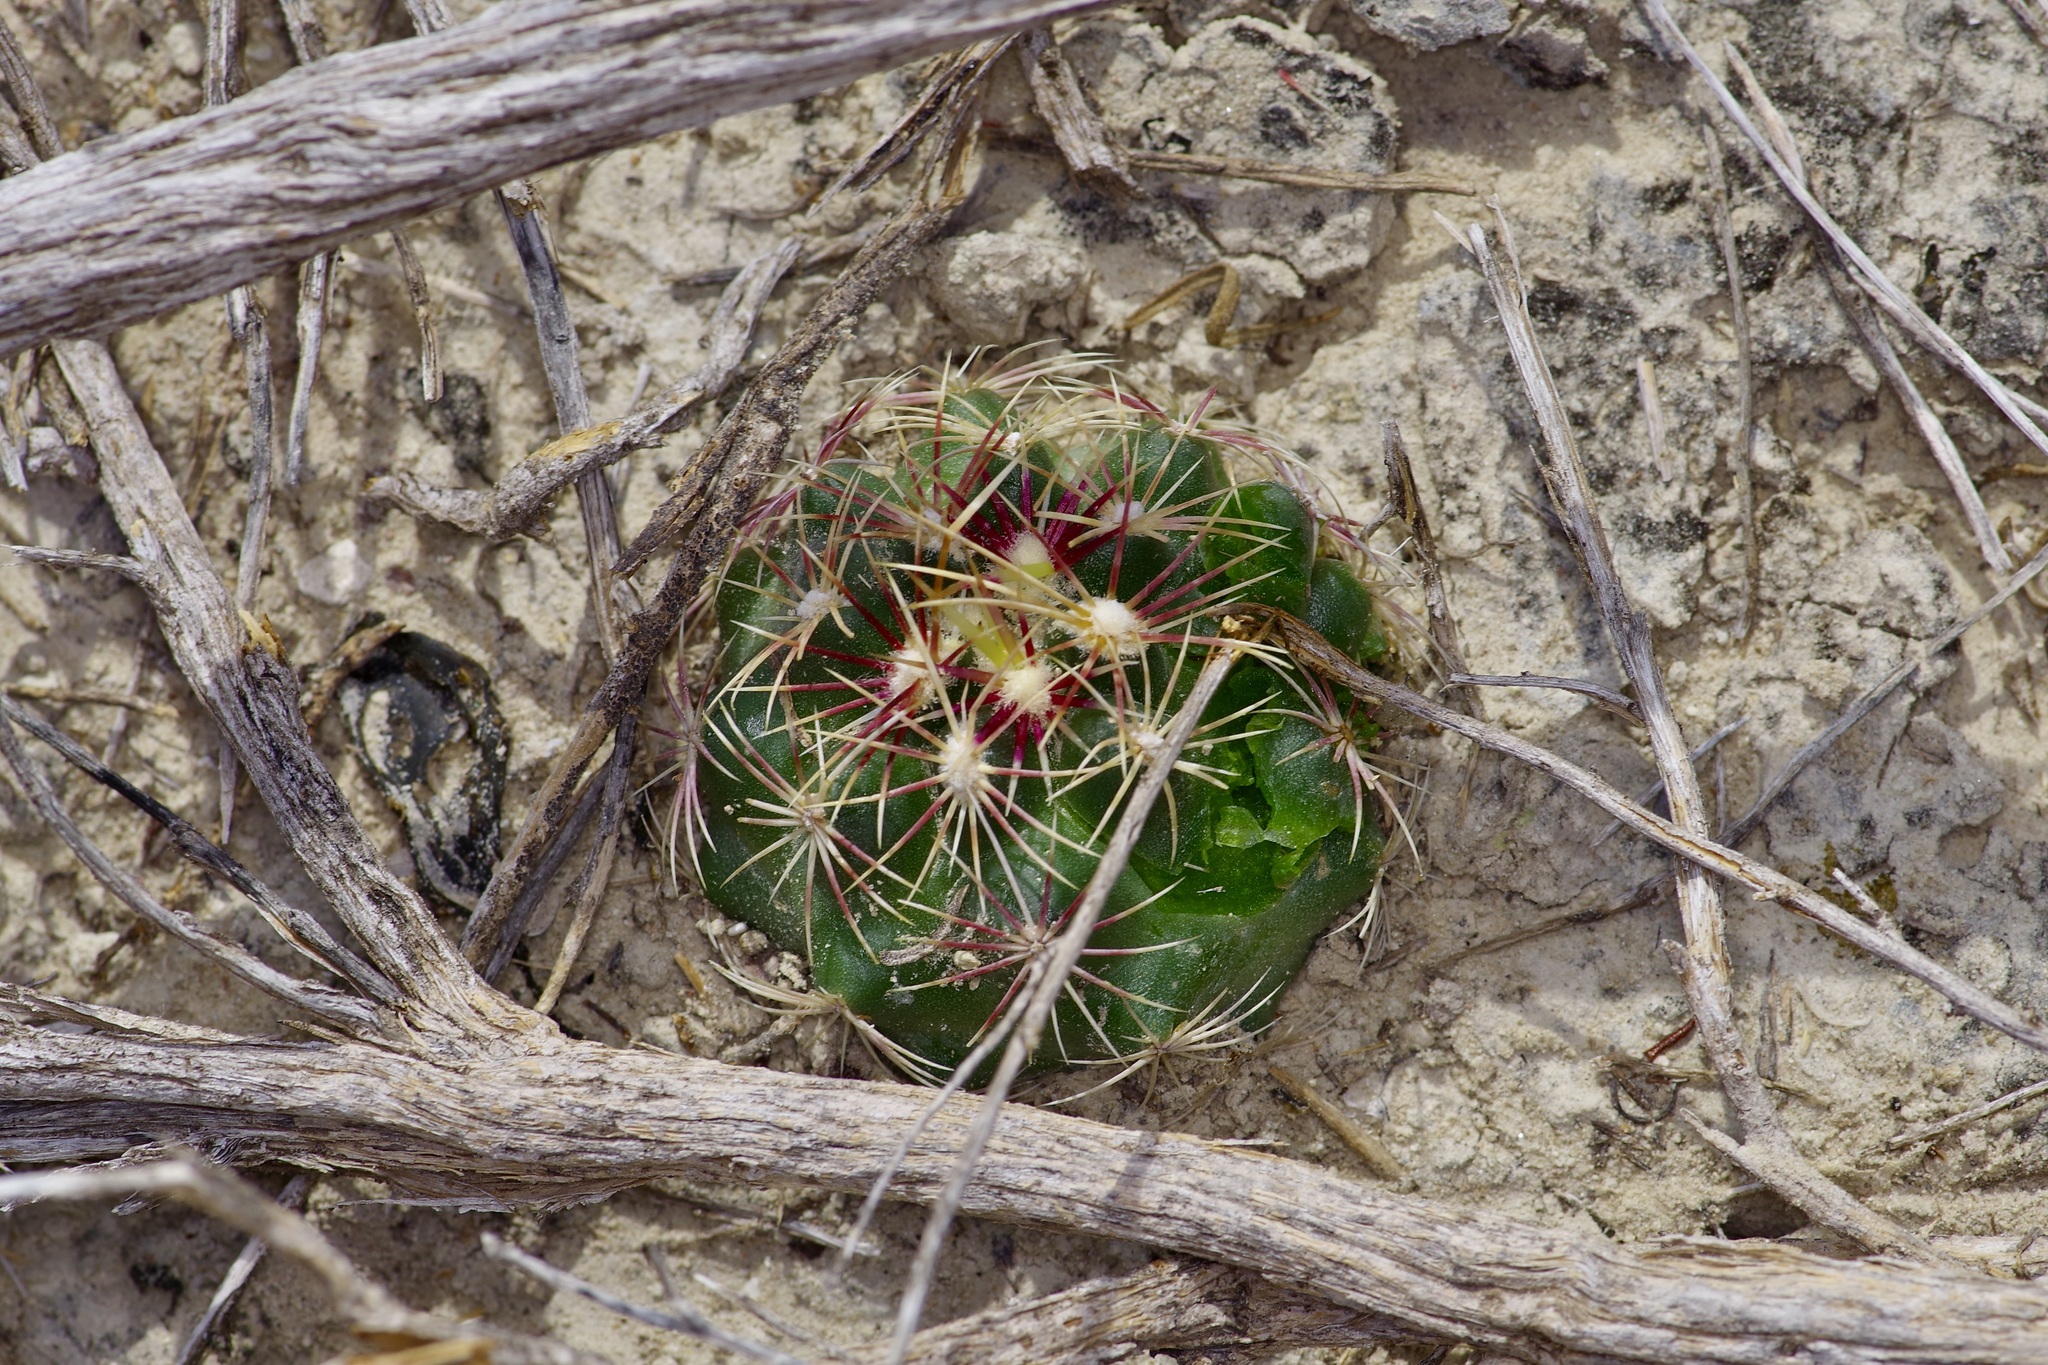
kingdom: Plantae
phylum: Tracheophyta
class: Magnoliopsida
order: Caryophyllales
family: Cactaceae
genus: Thelocactus
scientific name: Thelocactus bicolor
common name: Glory of texas
